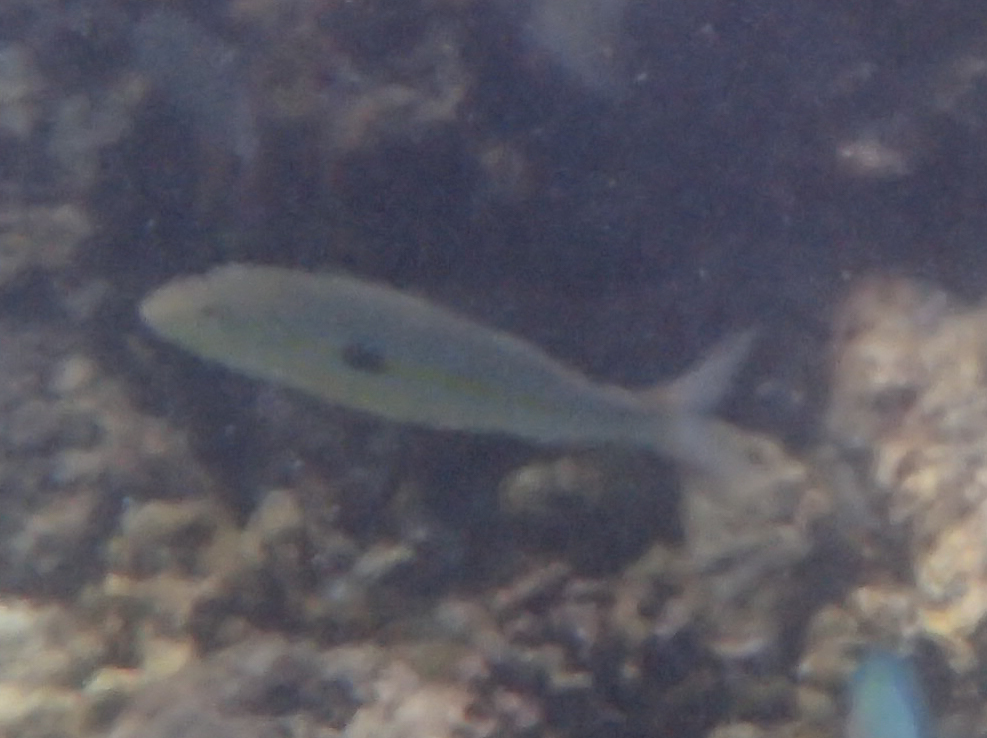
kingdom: Animalia
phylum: Chordata
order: Perciformes
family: Mullidae
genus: Mulloidichthys
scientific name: Mulloidichthys flavolineatus
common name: Yellowstripe goatfish
